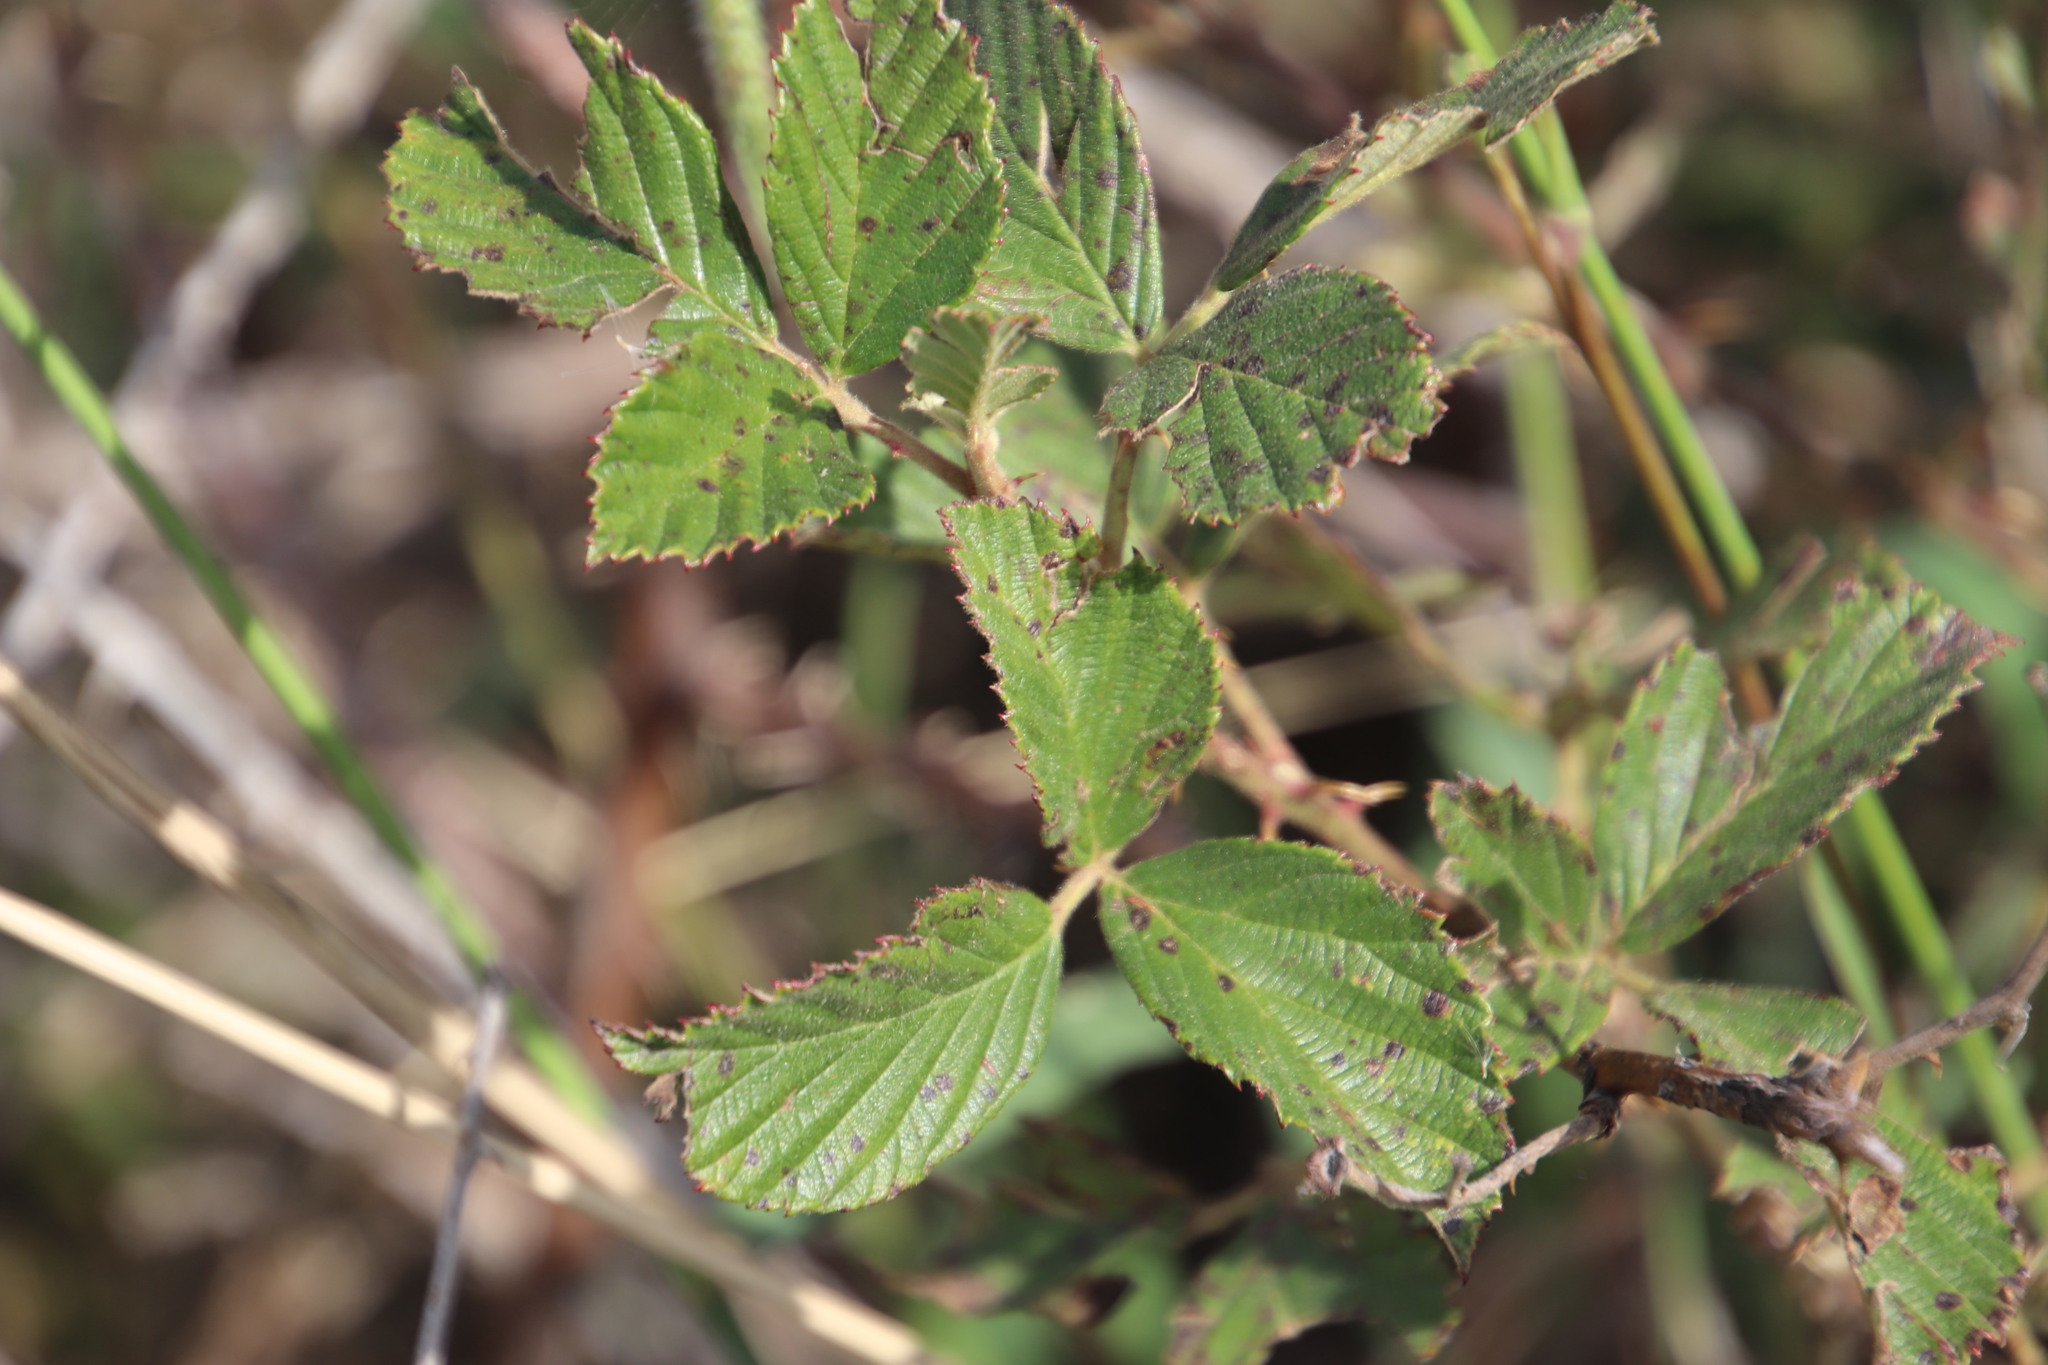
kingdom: Plantae
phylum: Tracheophyta
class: Magnoliopsida
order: Rosales
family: Rosaceae
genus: Rubus
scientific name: Rubus rigidus
